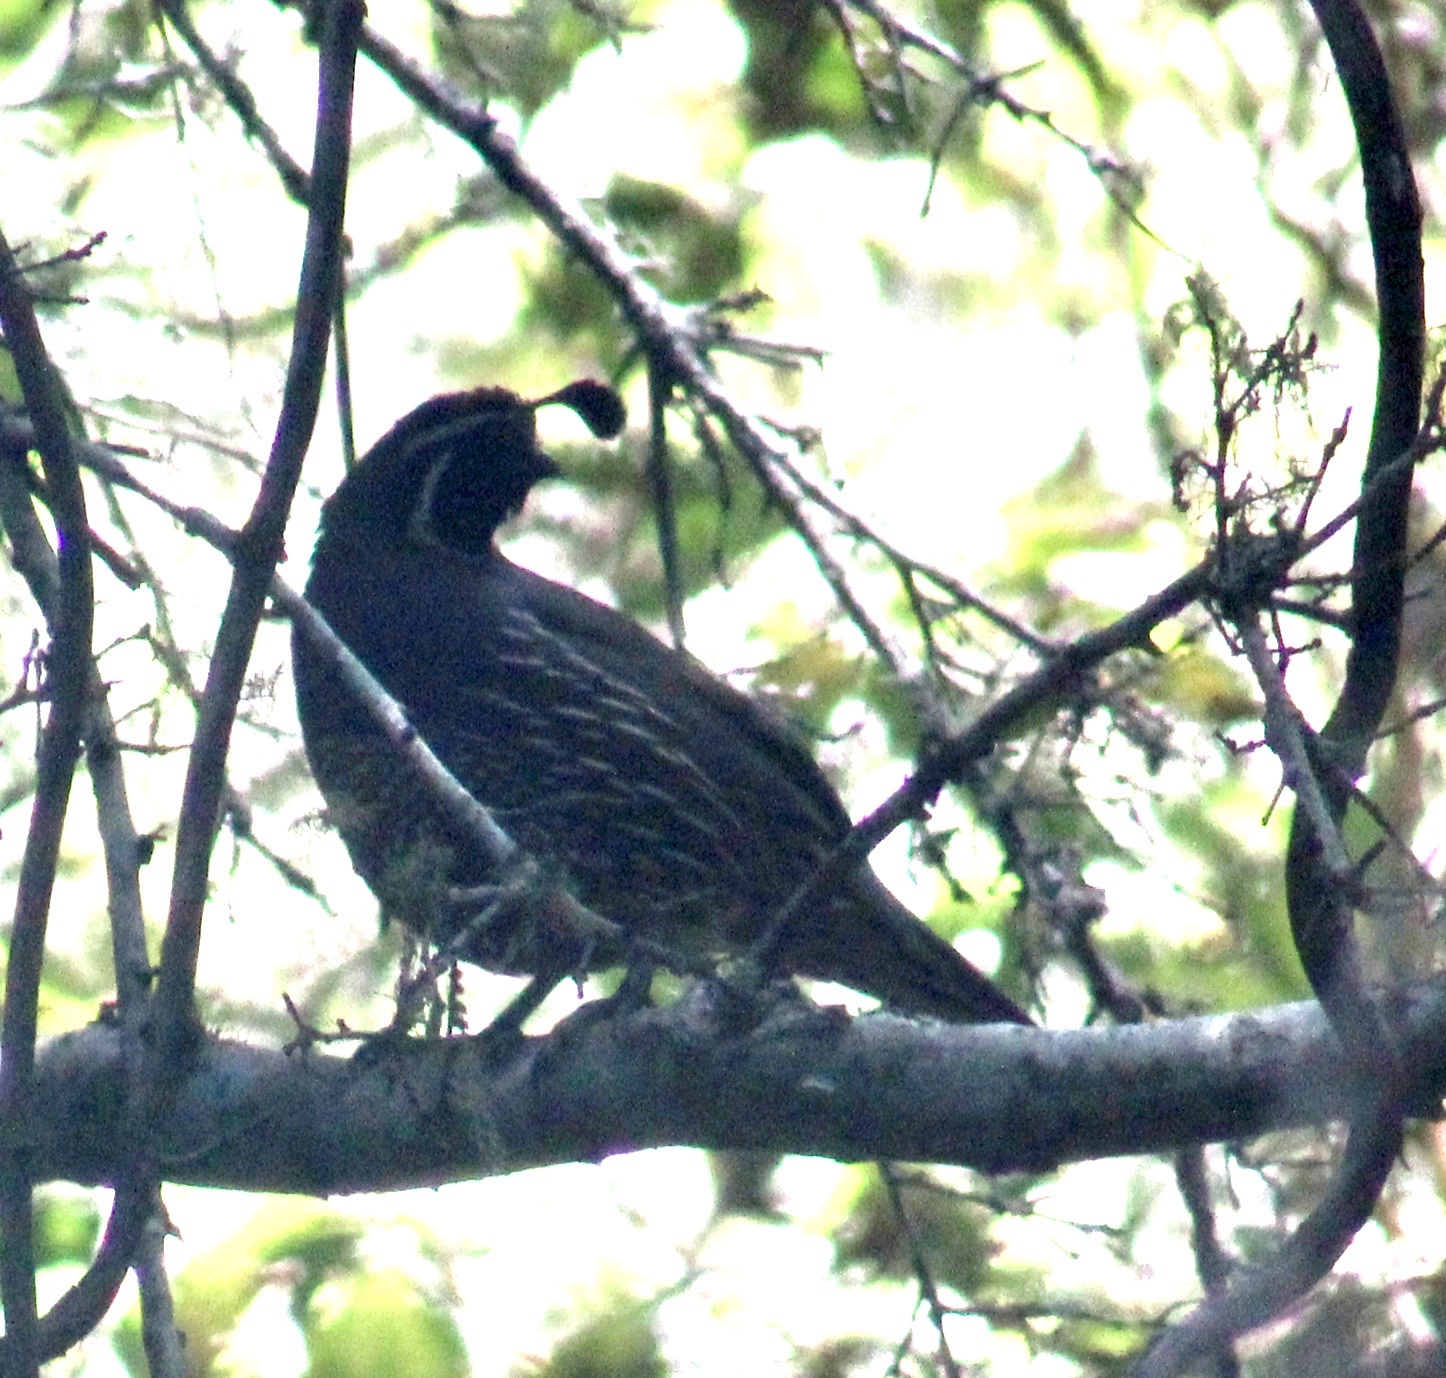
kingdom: Animalia
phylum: Chordata
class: Aves
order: Galliformes
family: Odontophoridae
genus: Callipepla
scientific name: Callipepla californica
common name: California quail
